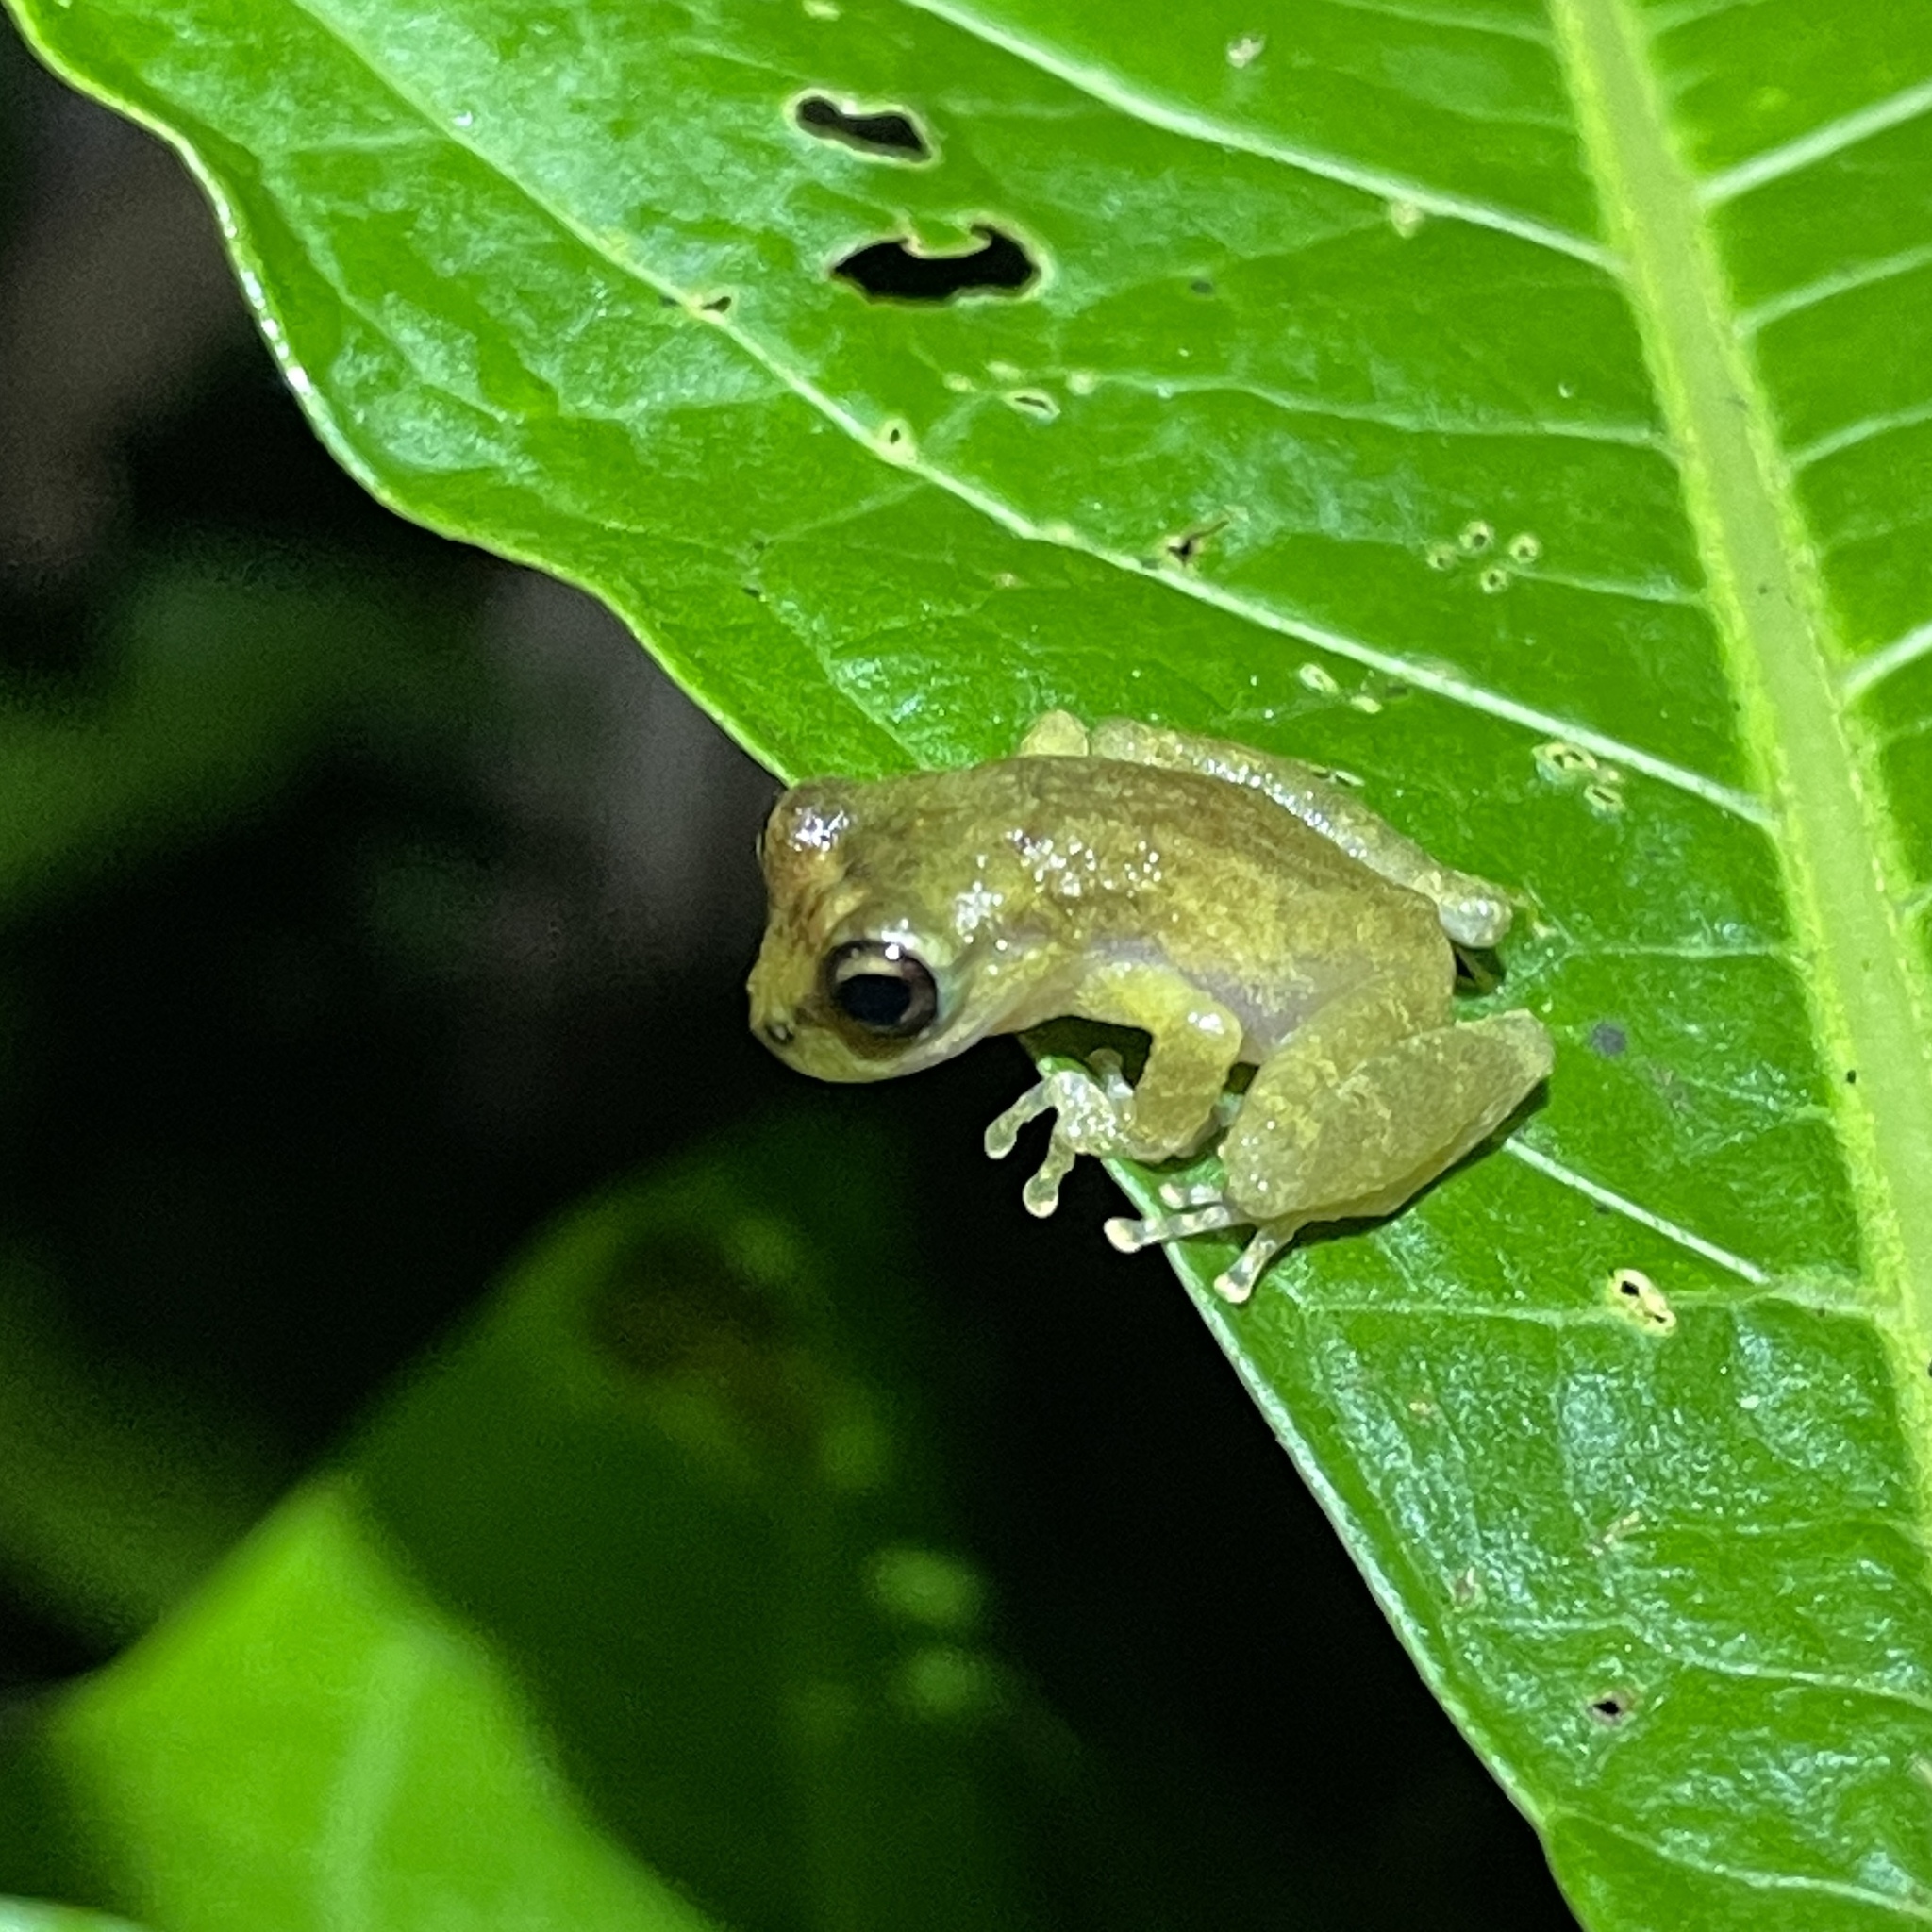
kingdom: Animalia
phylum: Chordata
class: Amphibia
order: Anura
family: Hemiphractidae
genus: Flectonotus
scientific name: Flectonotus fitzgeraldi
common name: Marsupial frog
